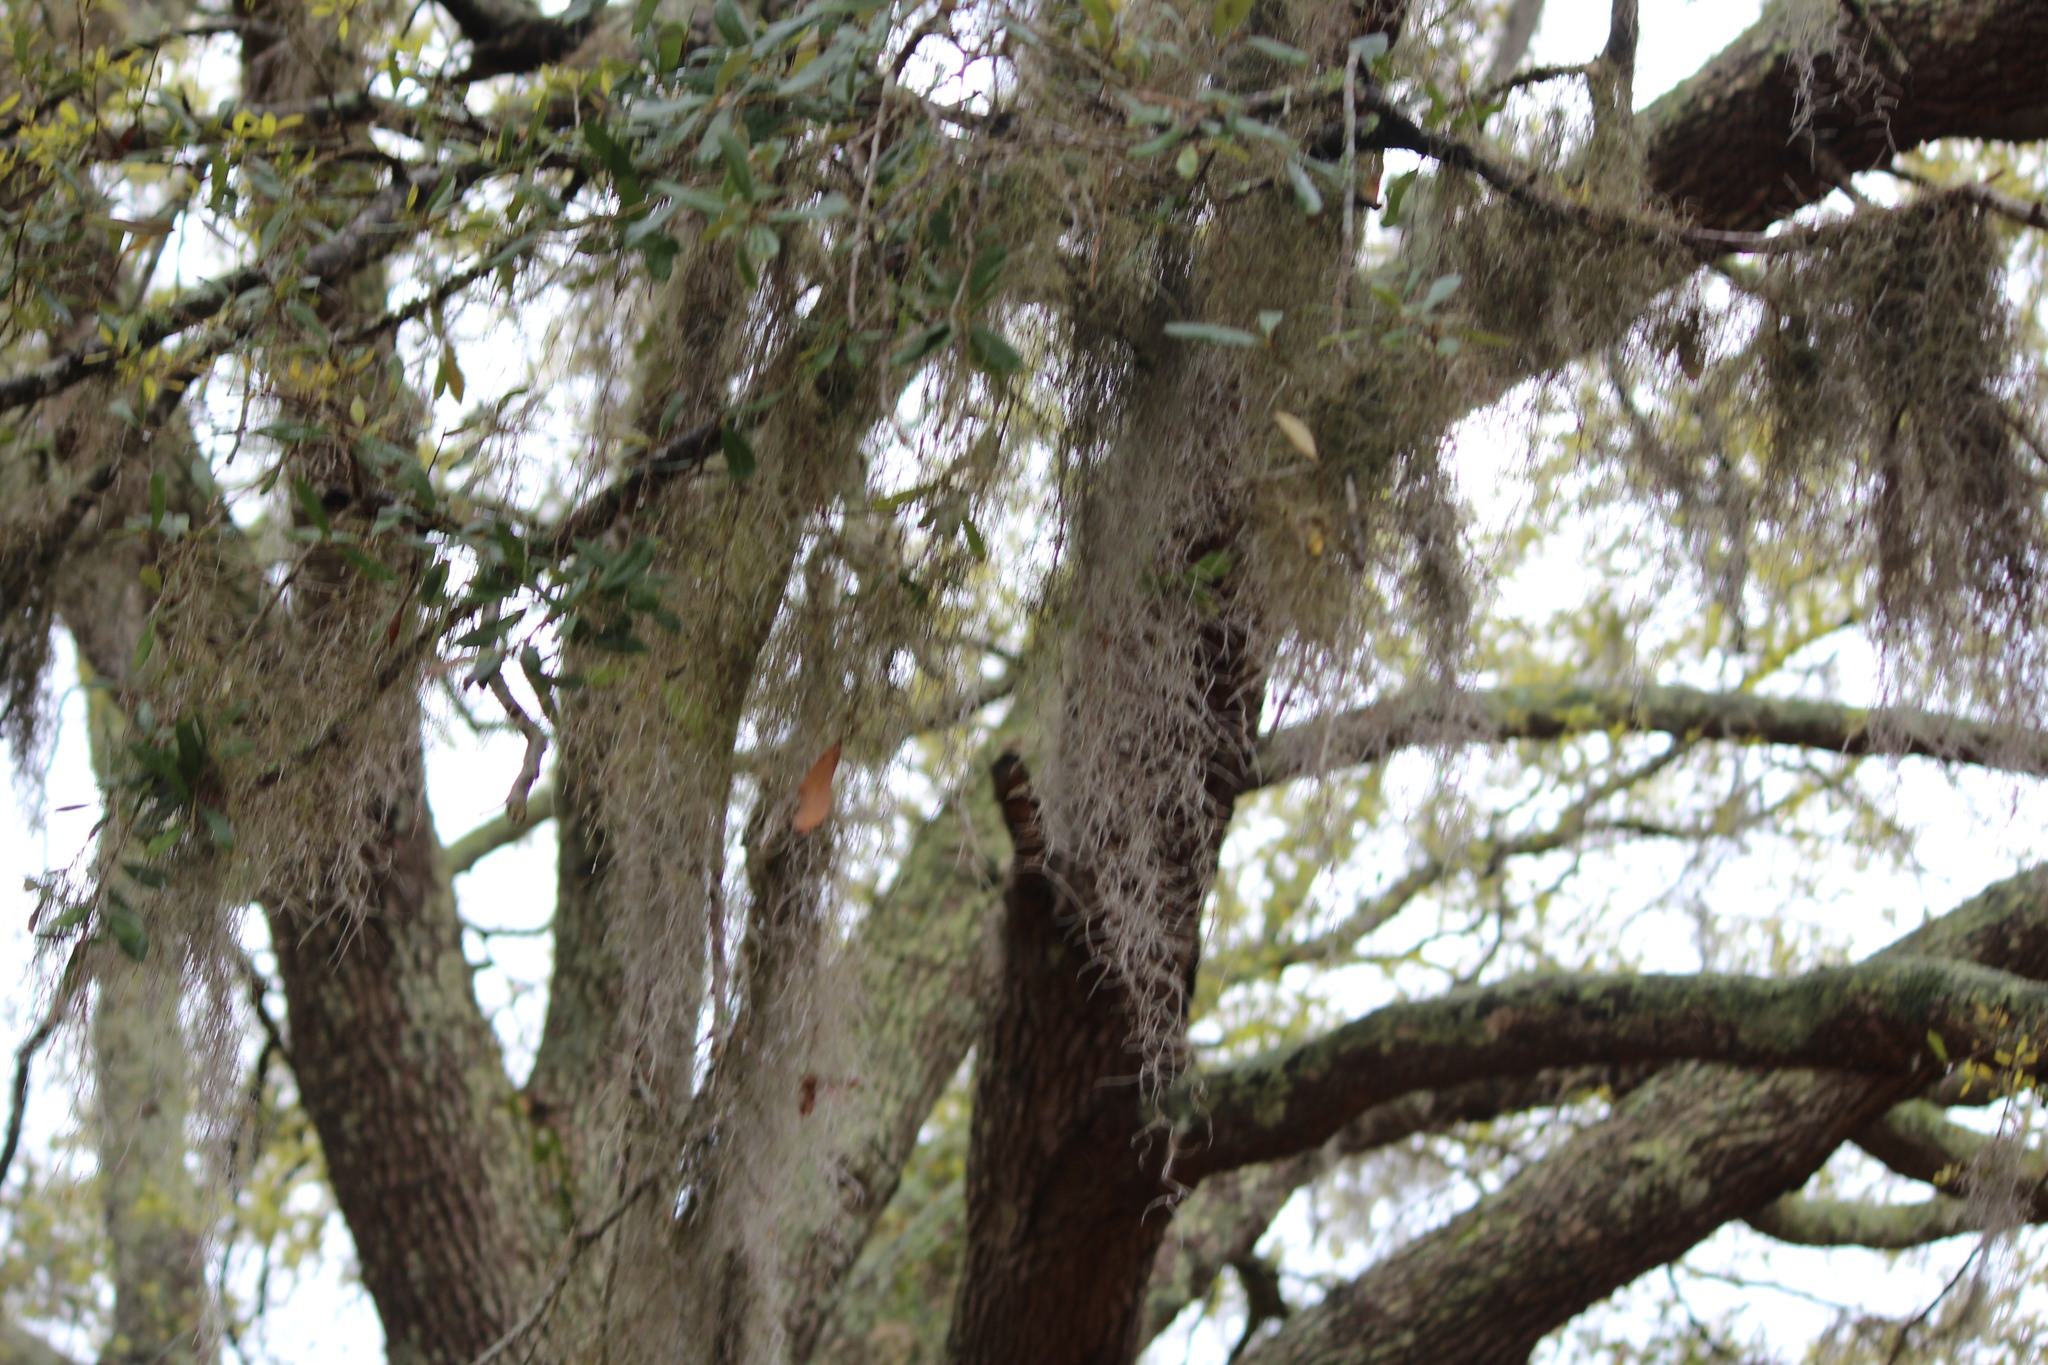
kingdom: Plantae
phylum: Tracheophyta
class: Liliopsida
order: Poales
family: Bromeliaceae
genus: Tillandsia
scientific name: Tillandsia usneoides
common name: Spanish moss
